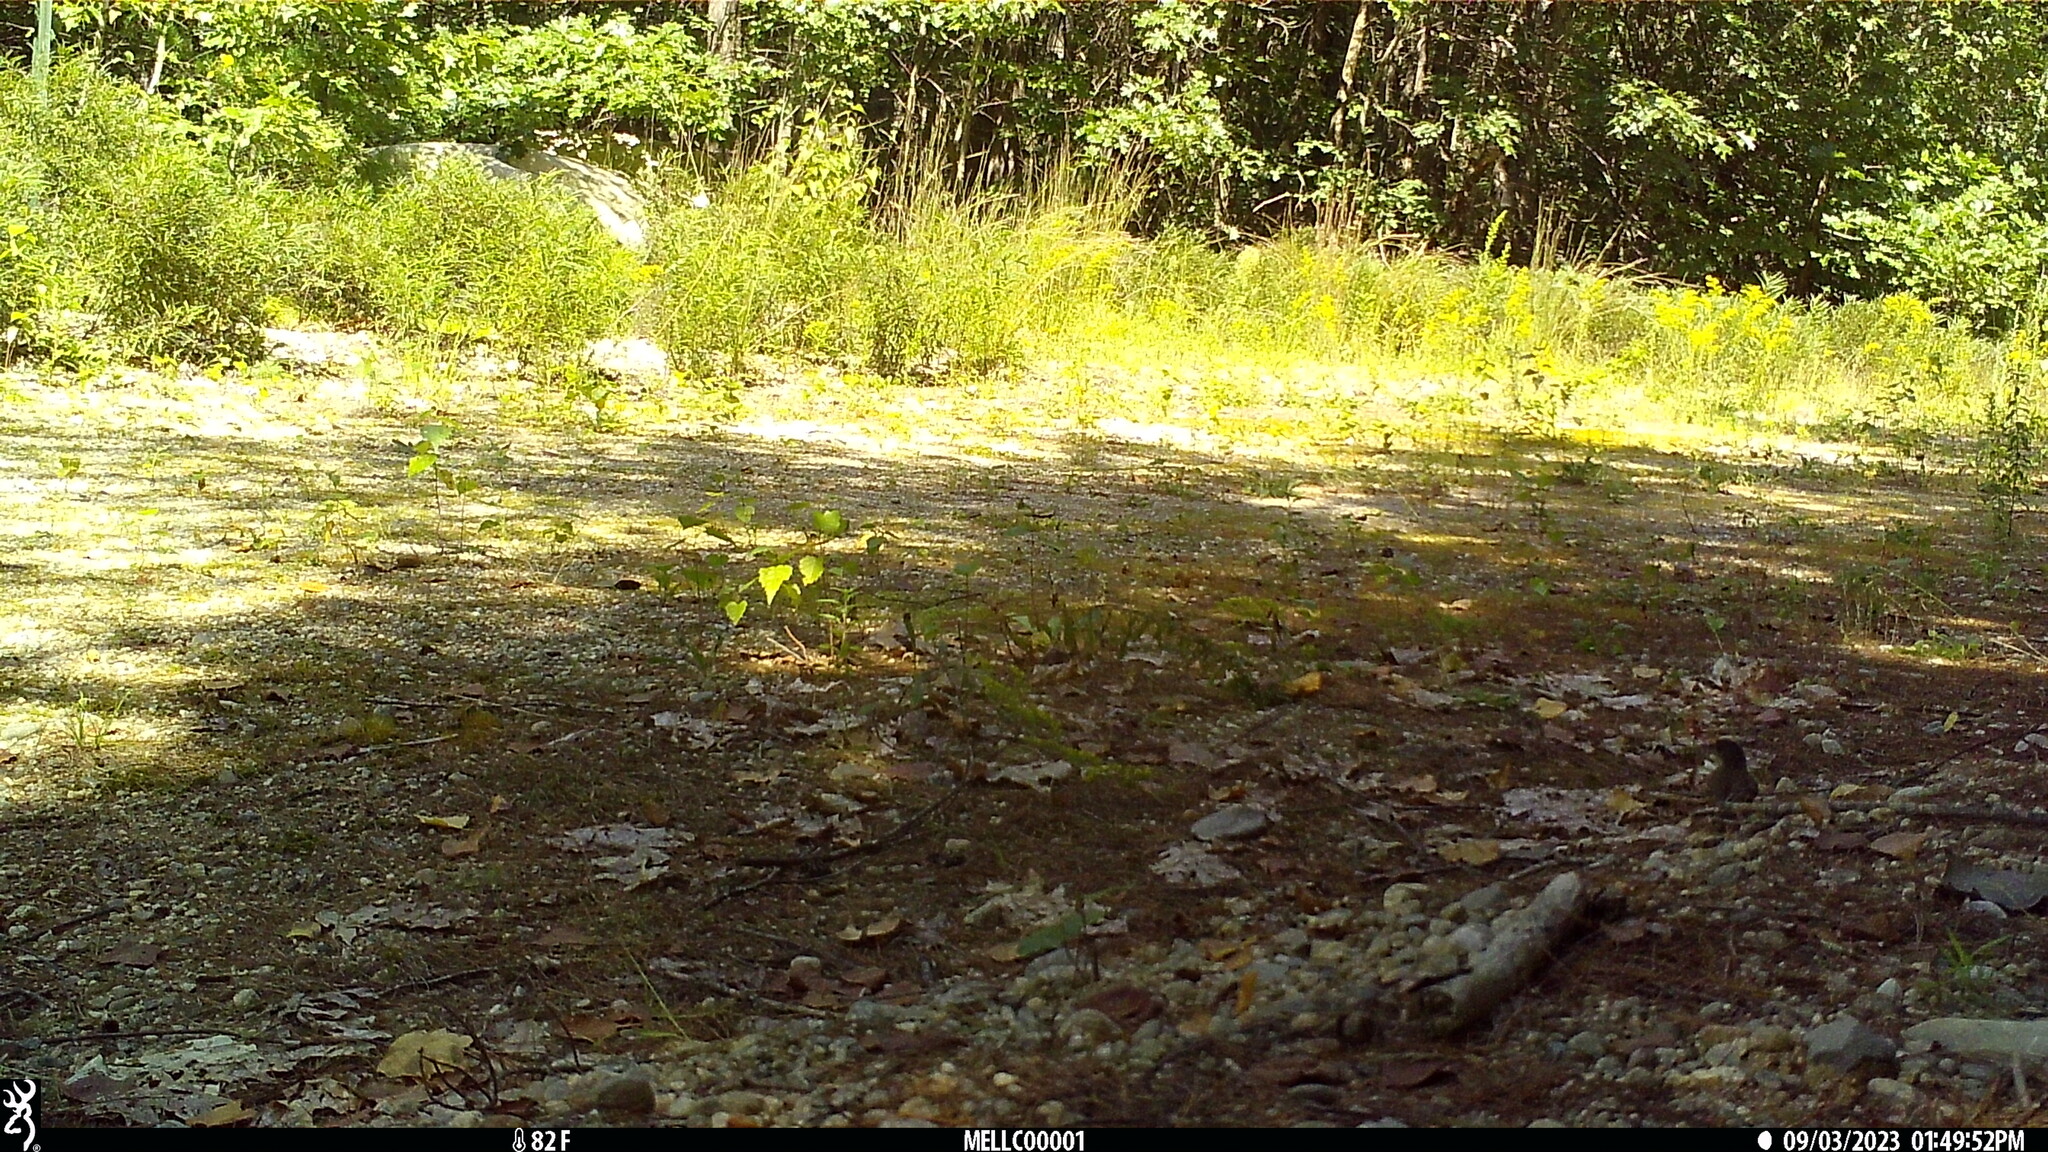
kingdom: Animalia
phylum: Chordata
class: Aves
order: Passeriformes
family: Tyrannidae
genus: Sayornis
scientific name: Sayornis phoebe
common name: Eastern phoebe
